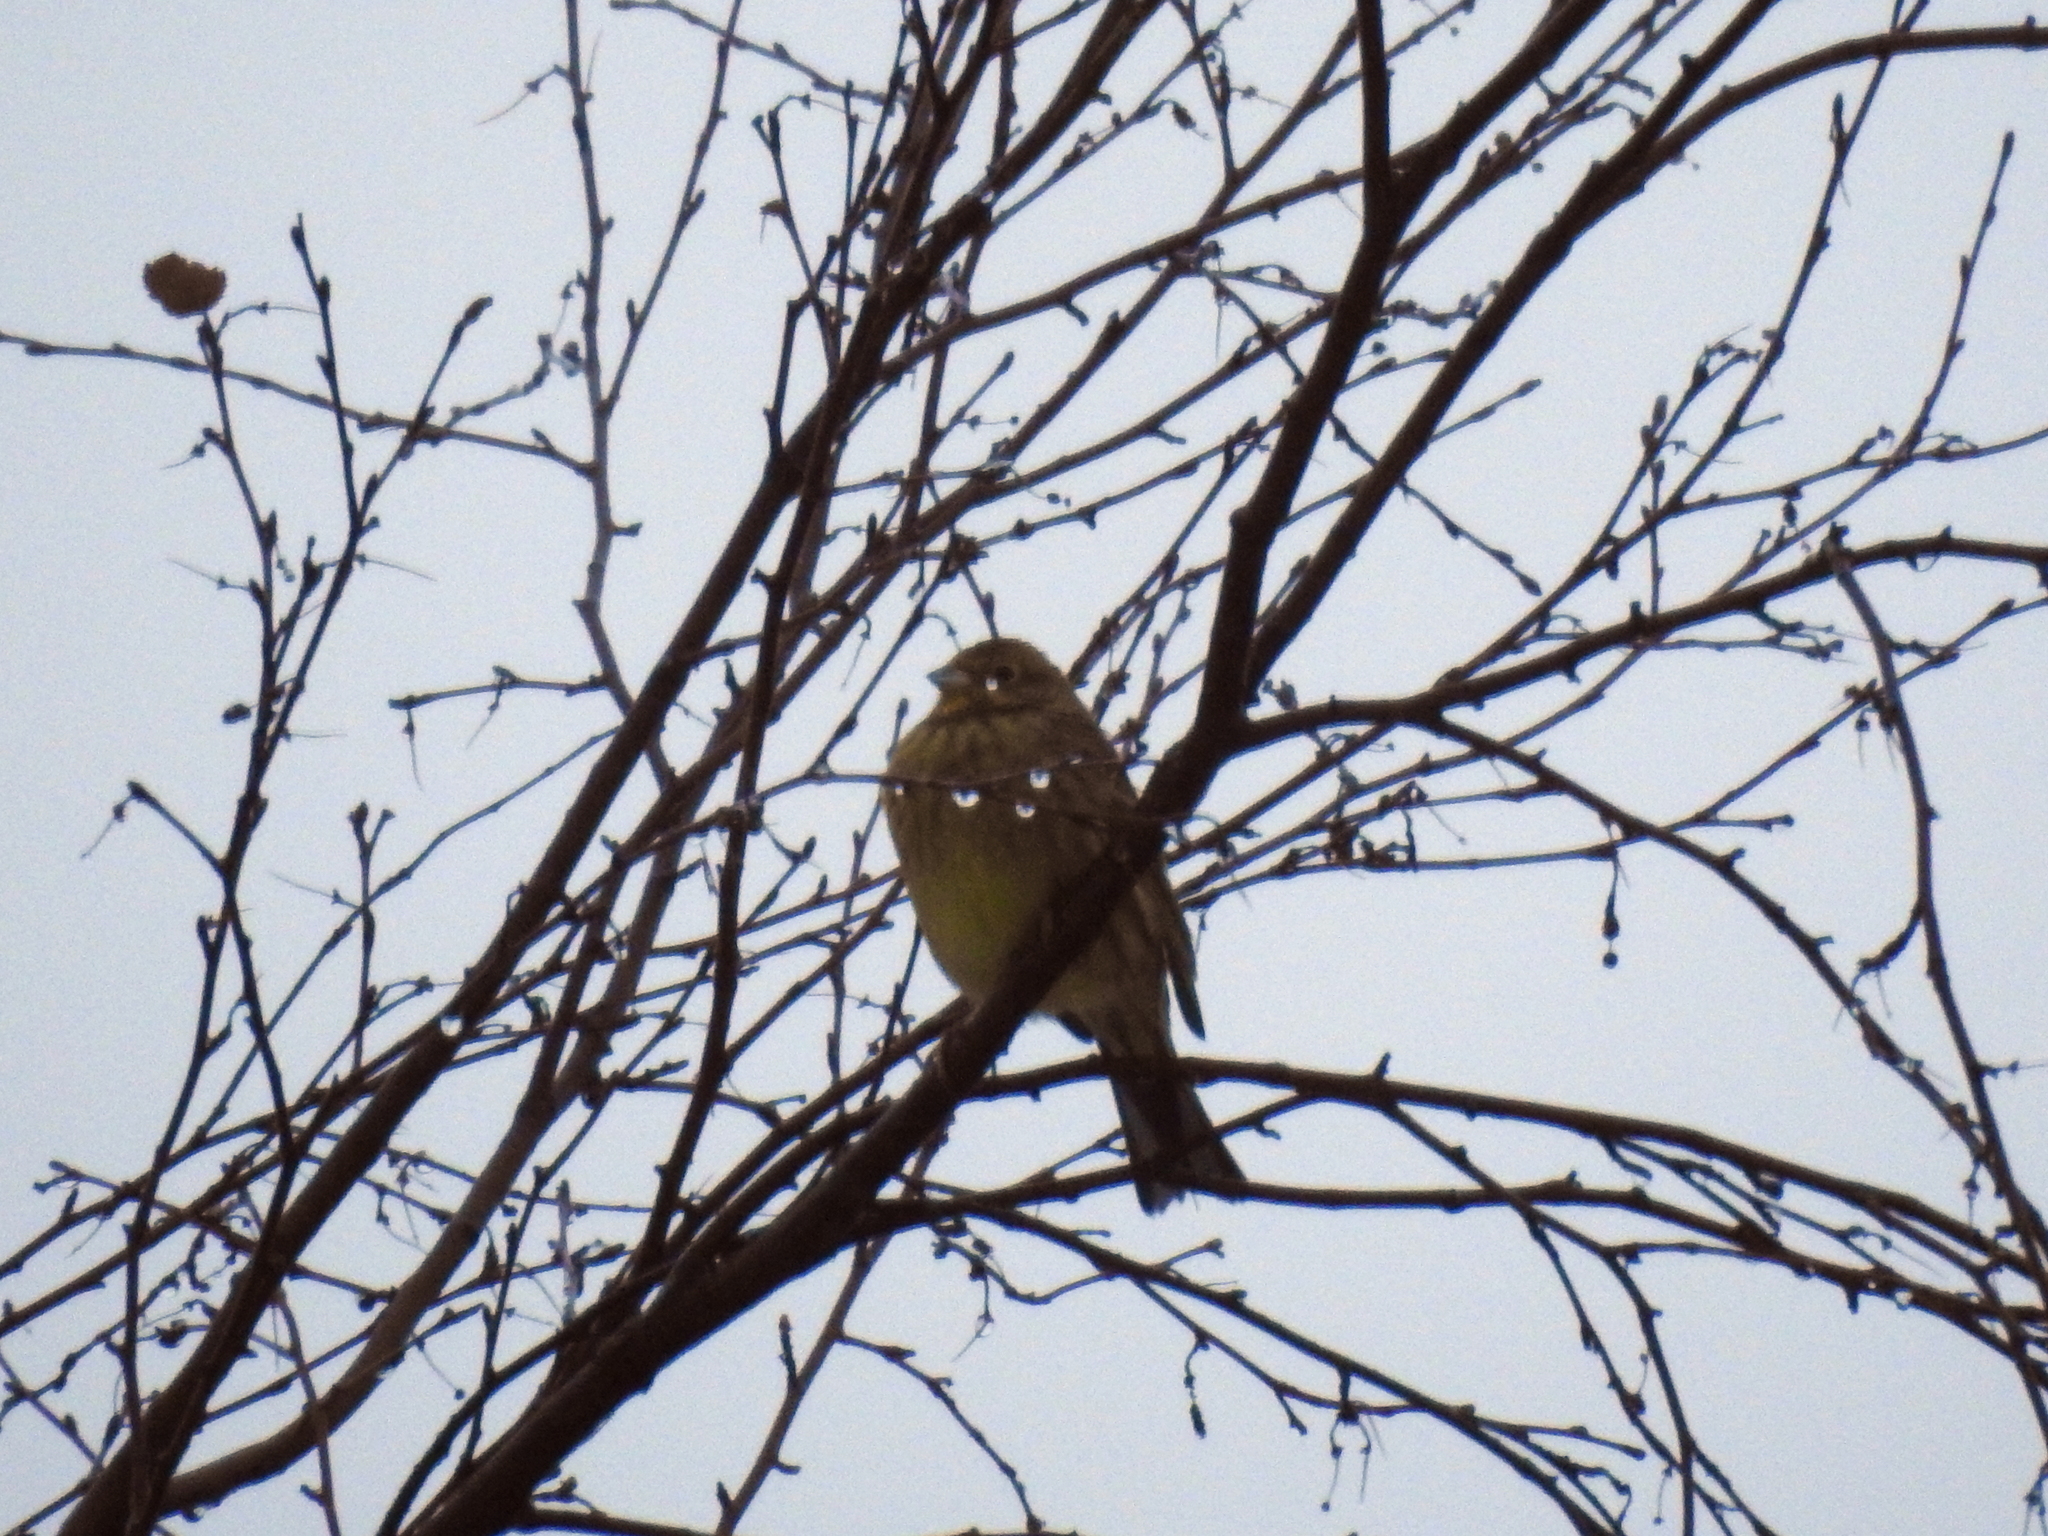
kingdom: Animalia
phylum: Chordata
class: Aves
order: Passeriformes
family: Emberizidae
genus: Emberiza
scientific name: Emberiza citrinella
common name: Yellowhammer
